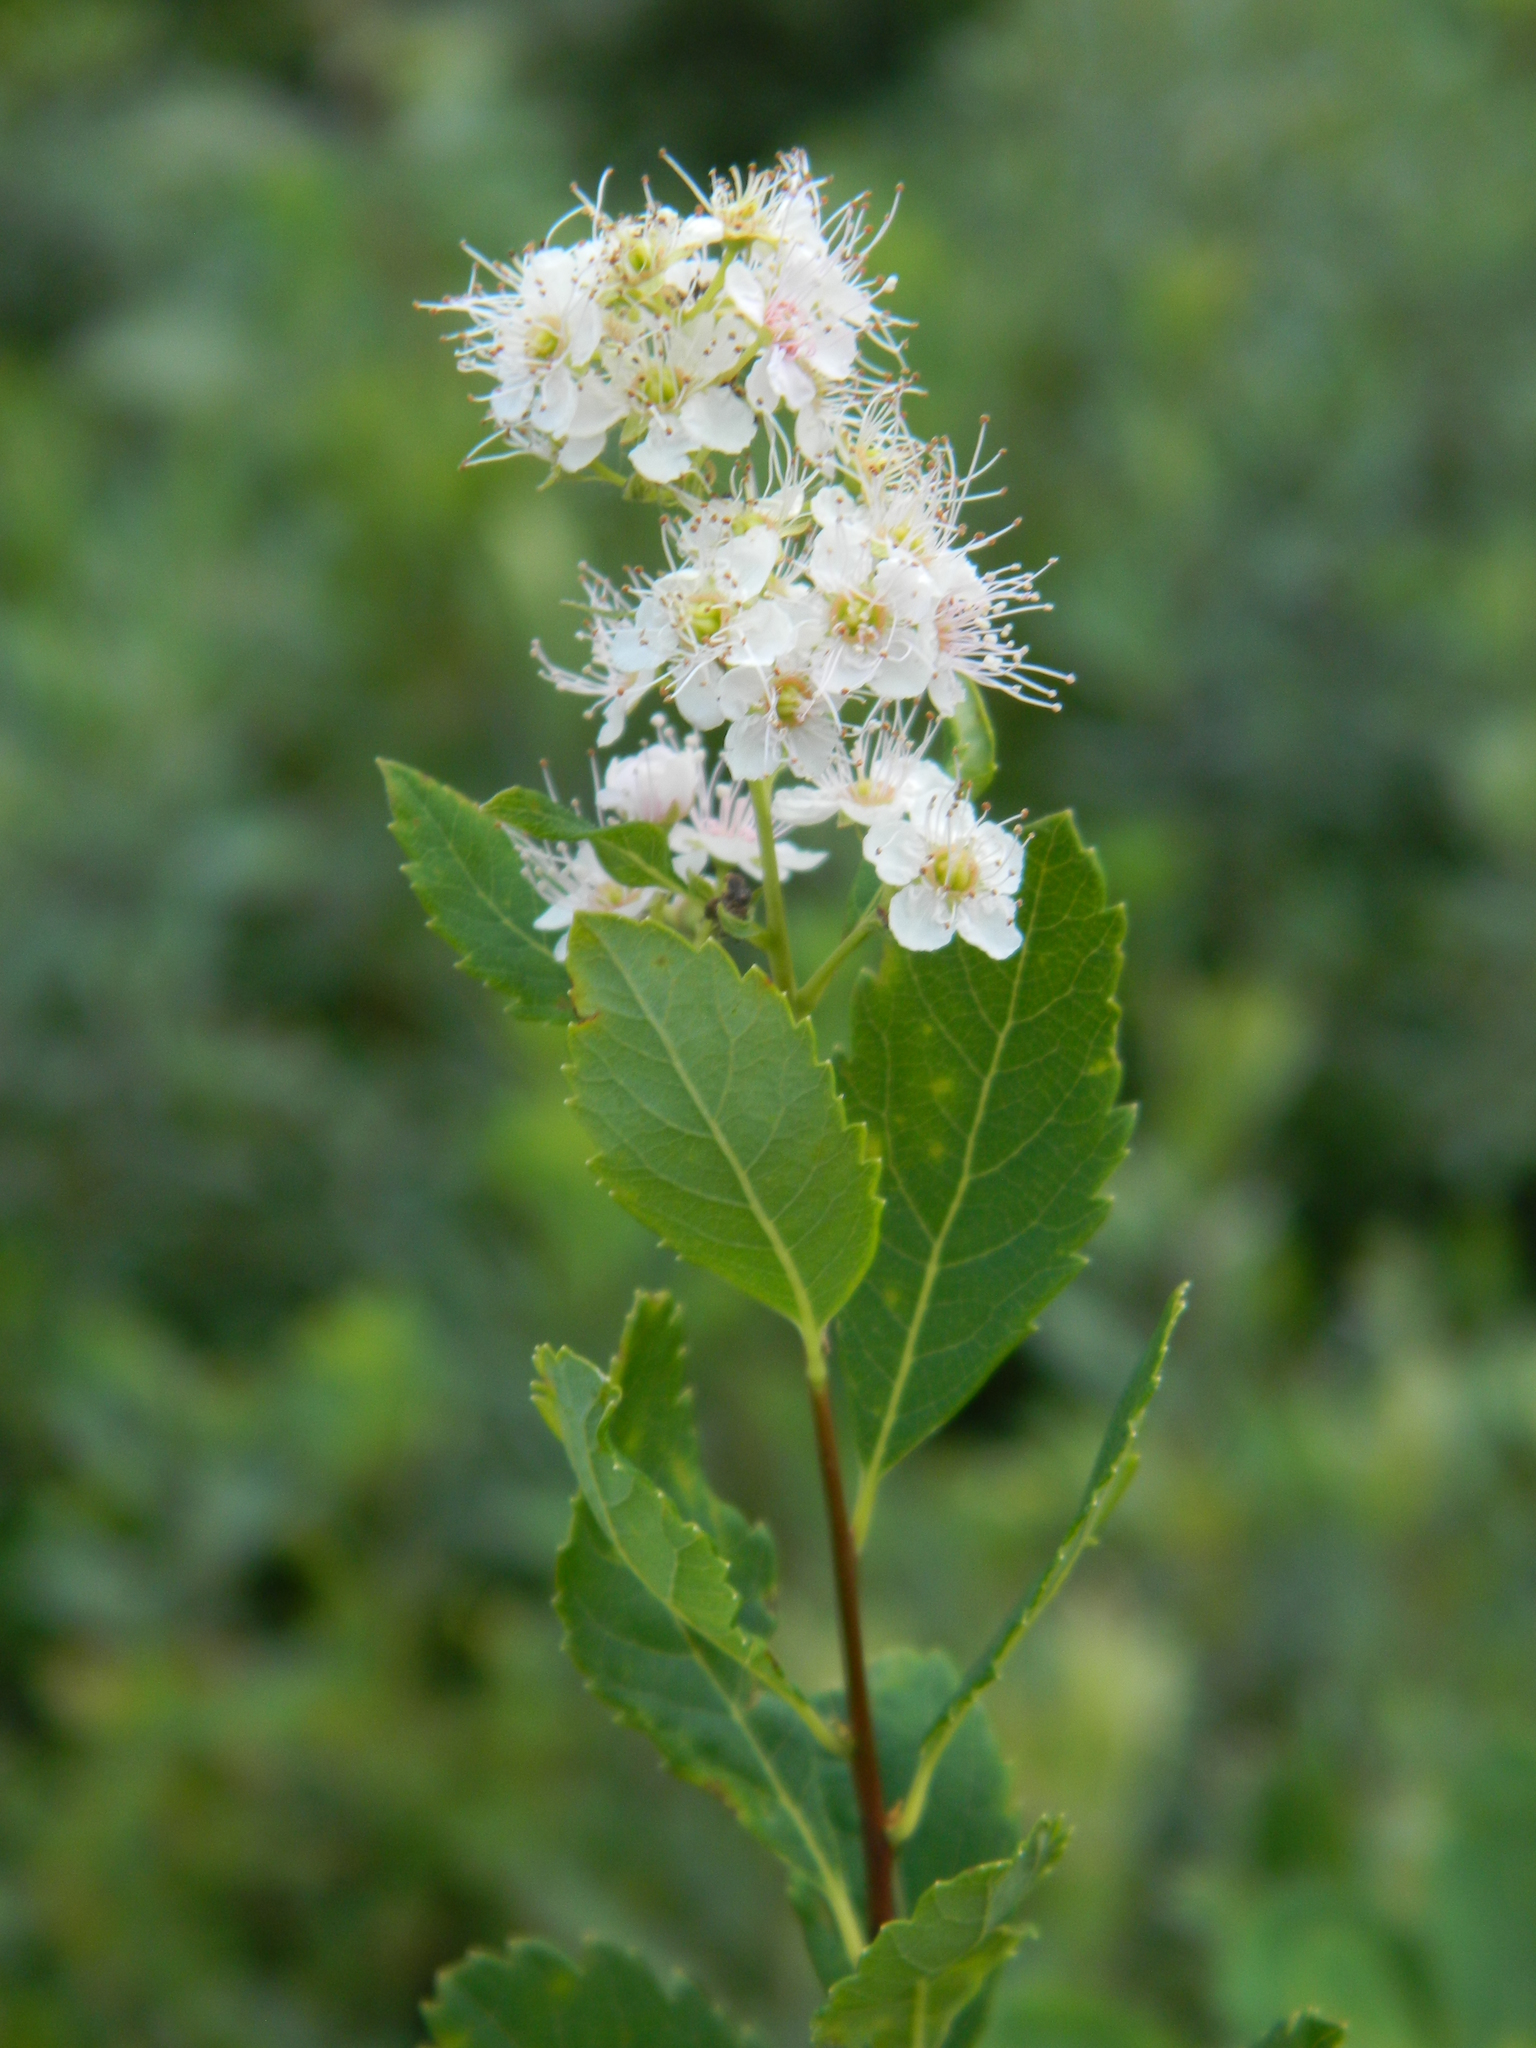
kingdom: Plantae
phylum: Tracheophyta
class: Magnoliopsida
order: Rosales
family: Rosaceae
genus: Spiraea
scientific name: Spiraea alba
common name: Pale bridewort
